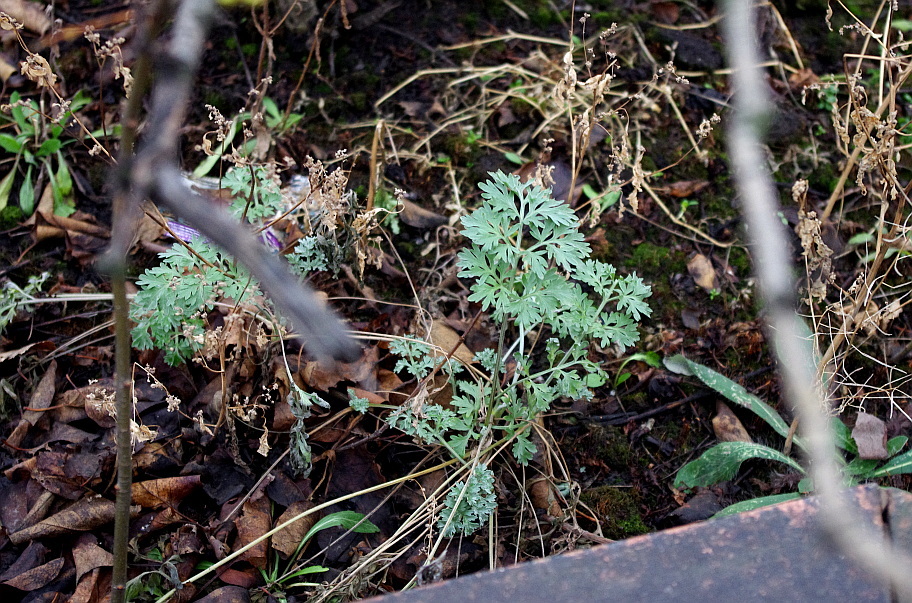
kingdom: Plantae
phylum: Tracheophyta
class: Magnoliopsida
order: Asterales
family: Asteraceae
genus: Artemisia
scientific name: Artemisia absinthium
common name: Wormwood
